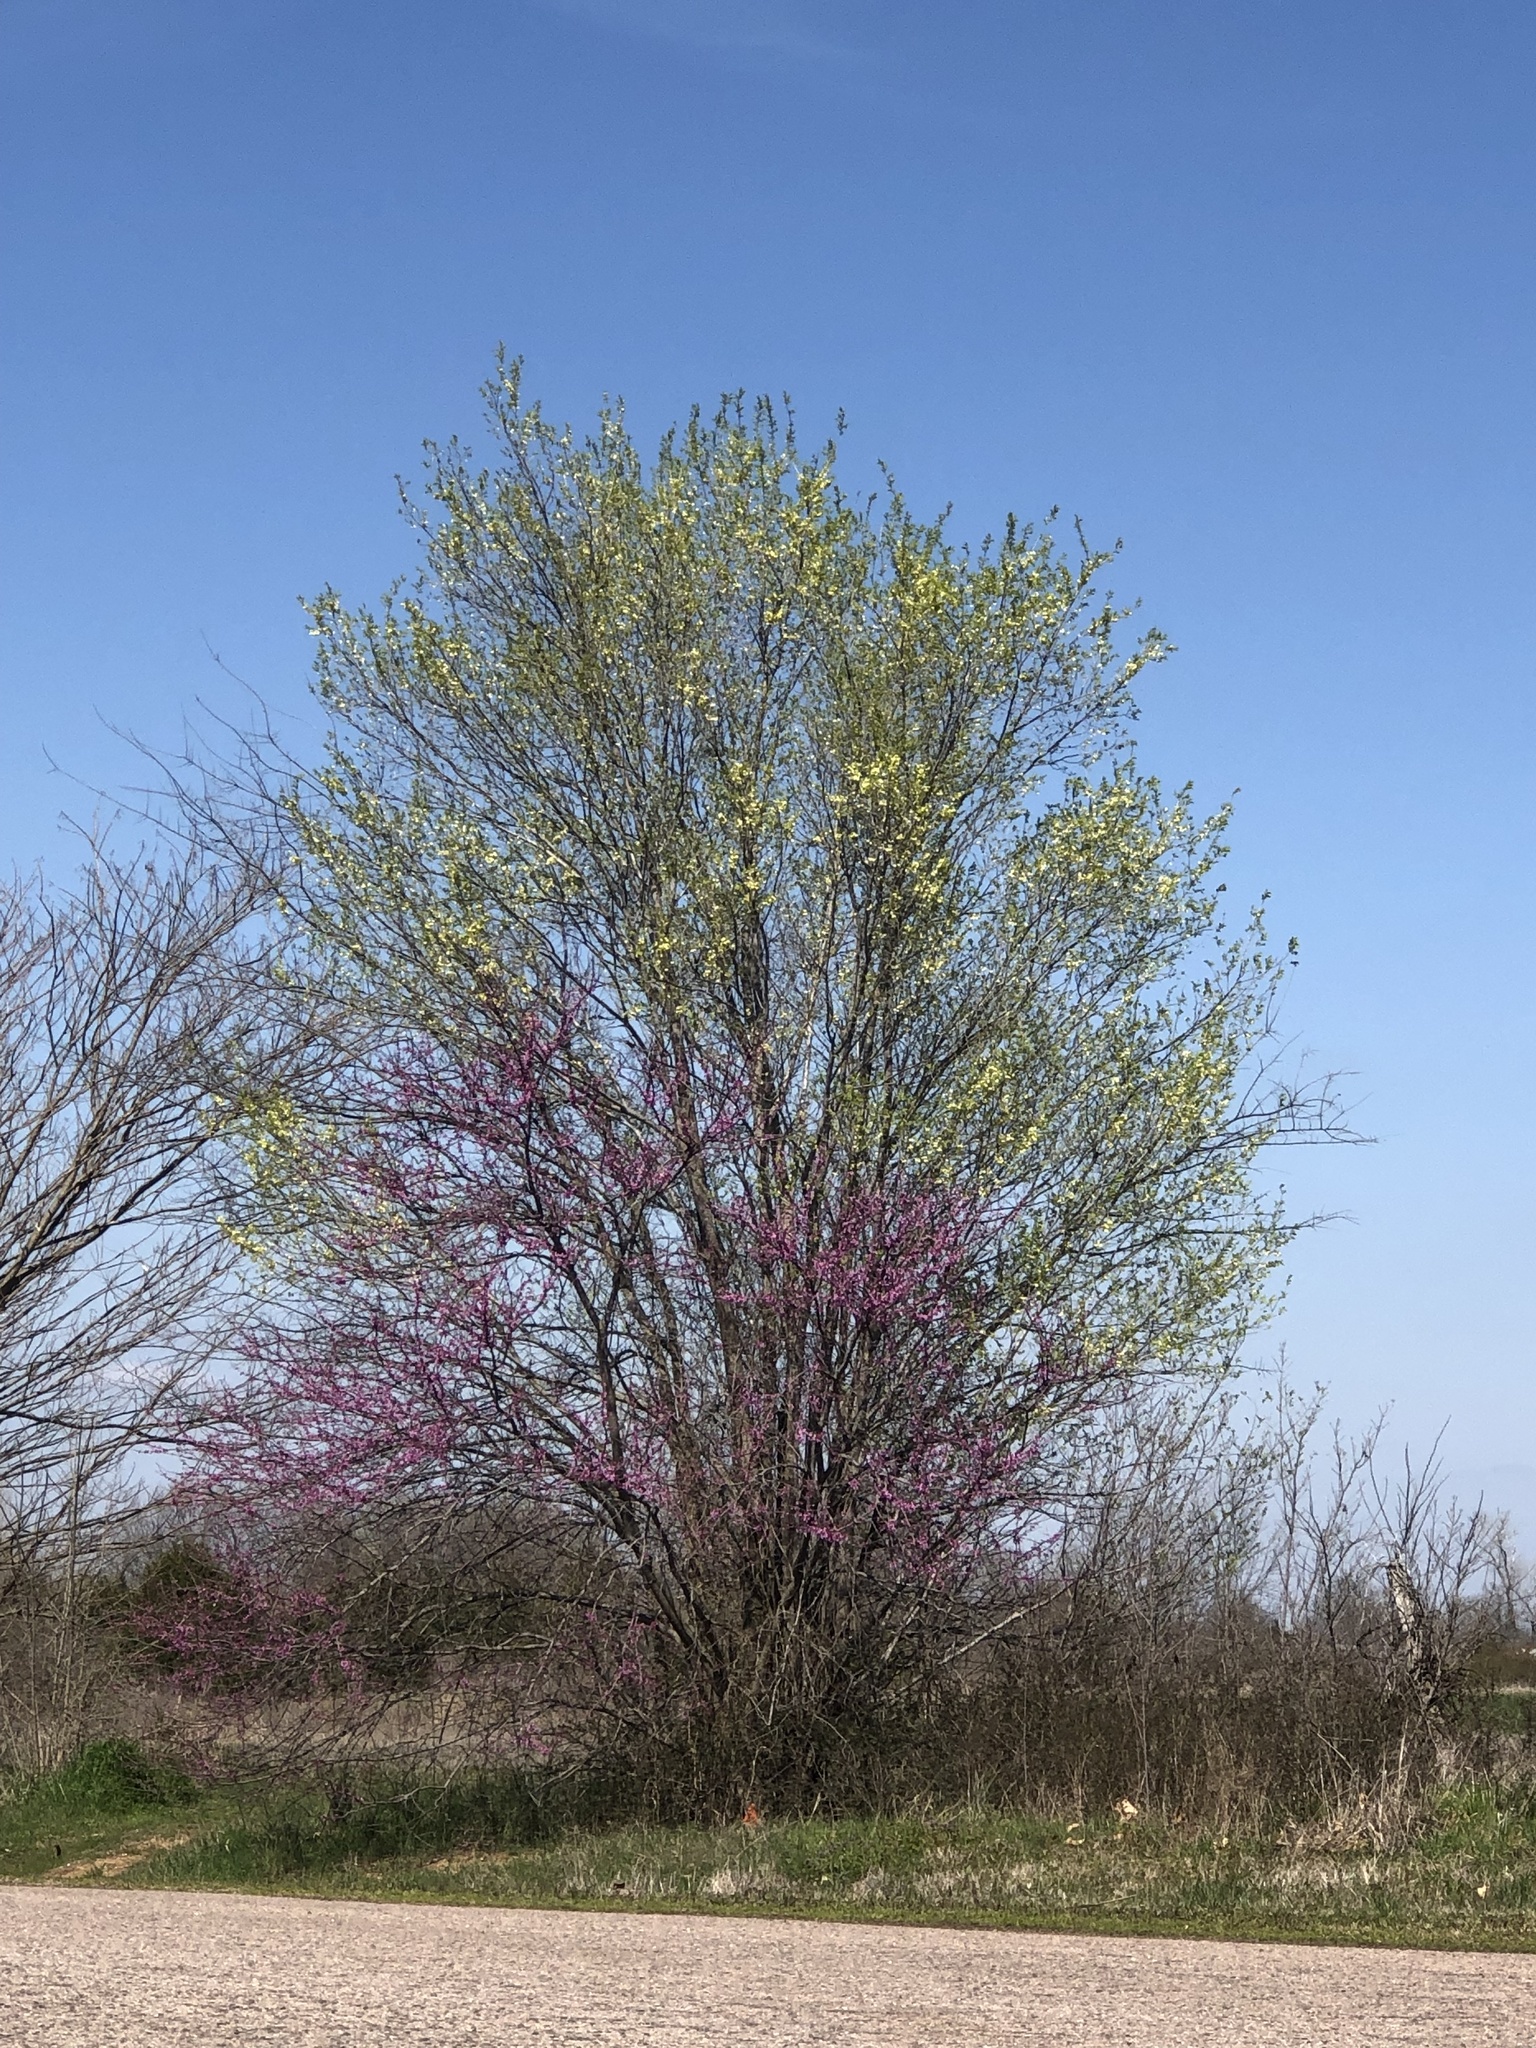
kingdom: Plantae
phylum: Tracheophyta
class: Magnoliopsida
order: Fabales
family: Fabaceae
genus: Cercis
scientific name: Cercis canadensis
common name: Eastern redbud
